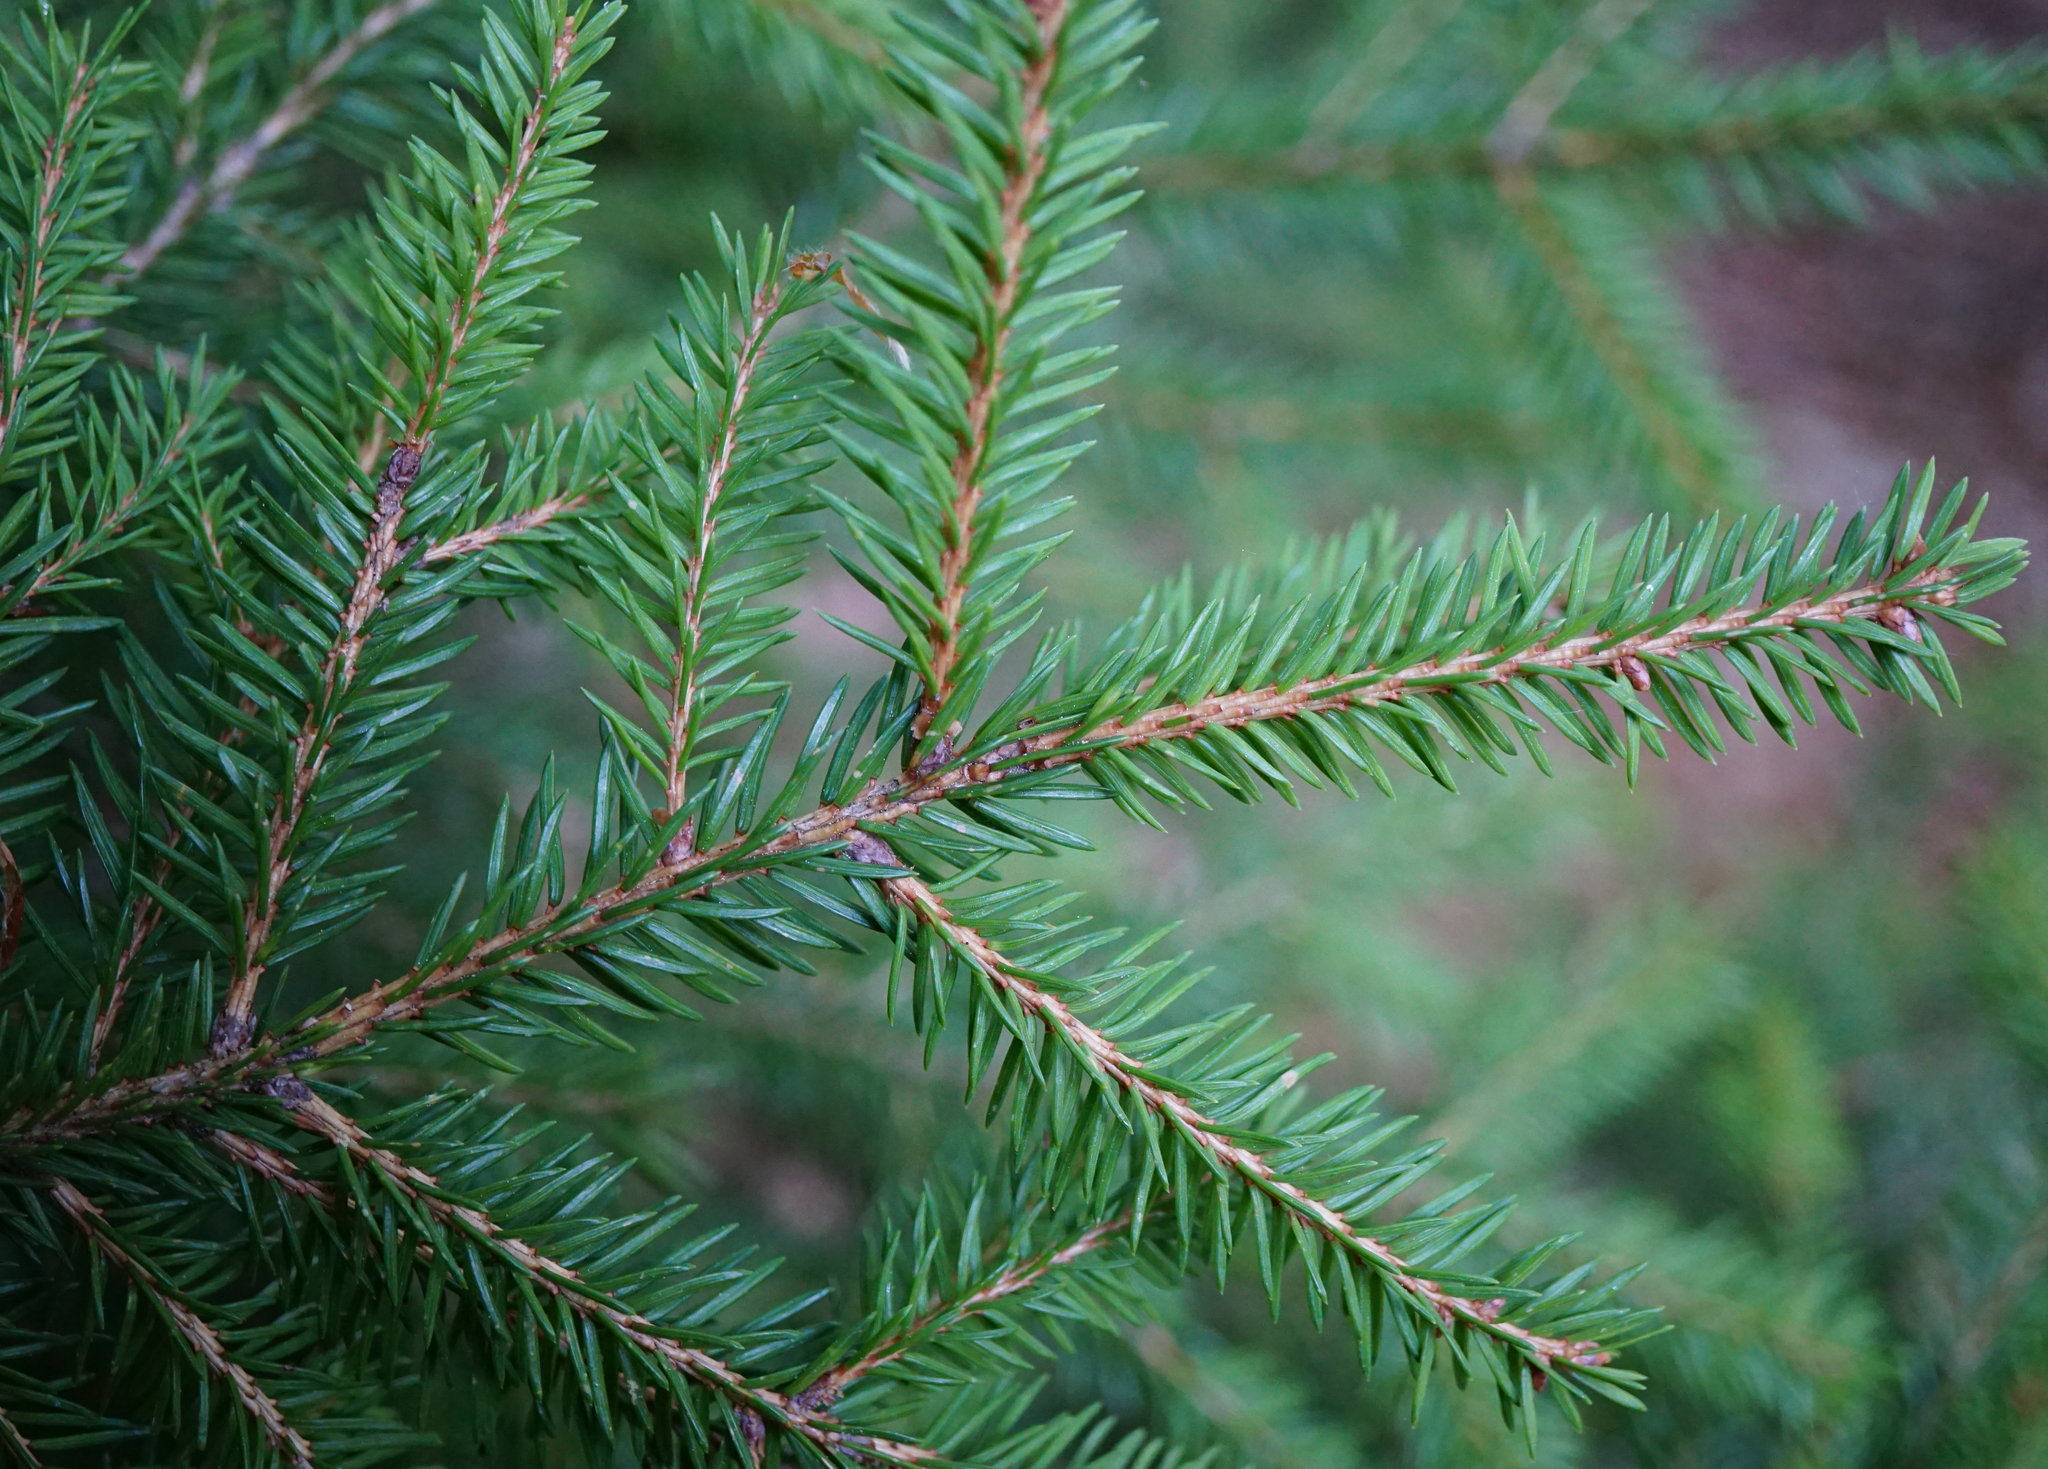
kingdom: Plantae
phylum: Tracheophyta
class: Pinopsida
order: Pinales
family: Pinaceae
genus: Picea
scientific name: Picea abies
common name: Norway spruce
